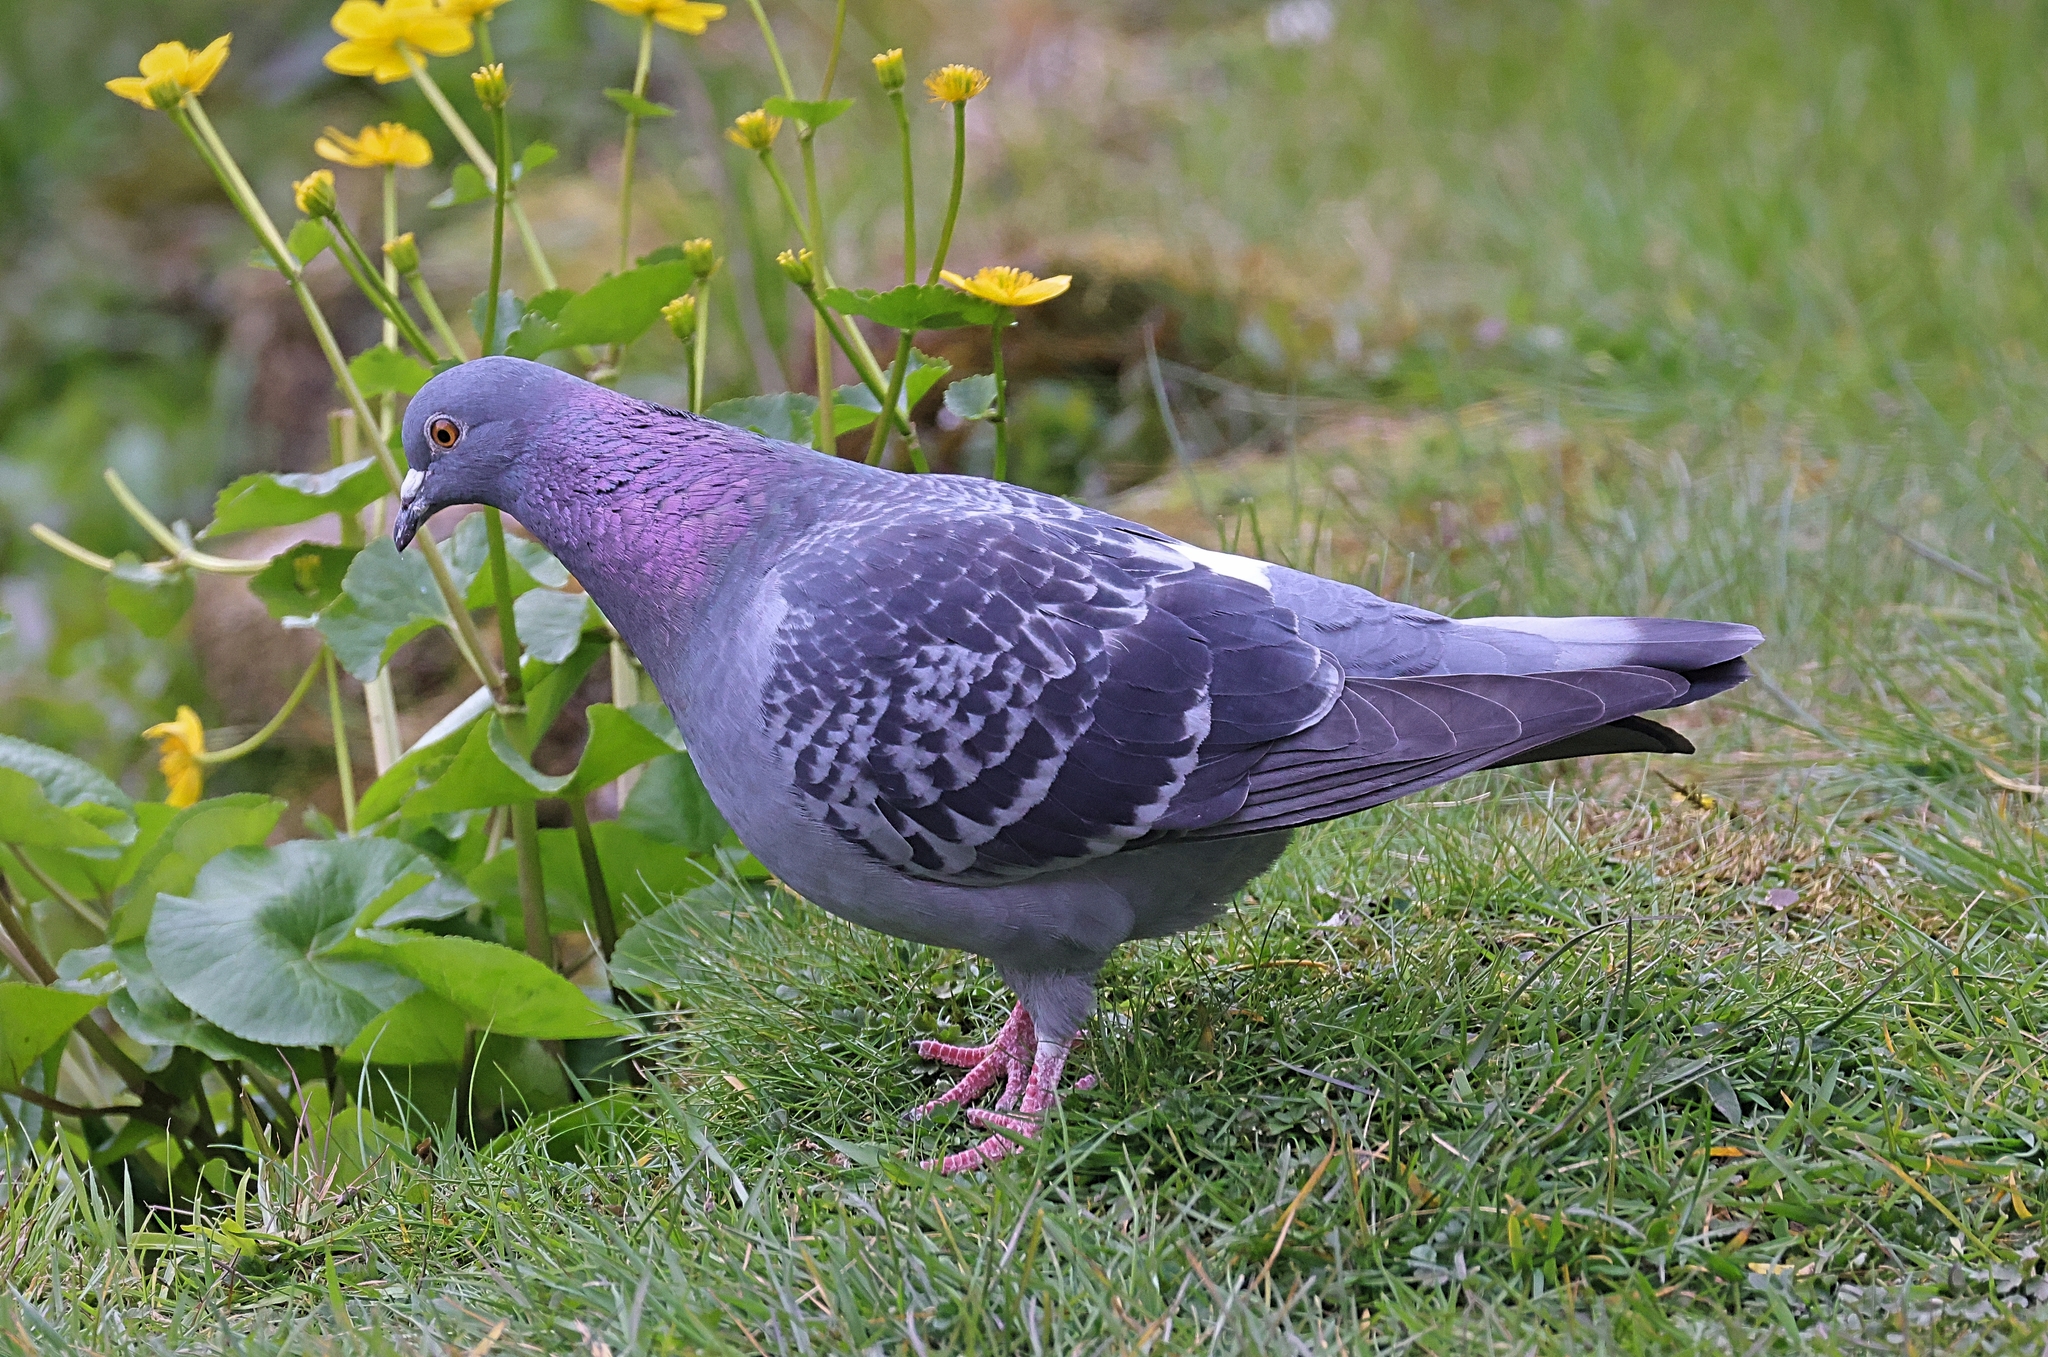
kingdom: Animalia
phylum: Chordata
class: Aves
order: Columbiformes
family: Columbidae
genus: Columba
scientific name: Columba livia
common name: Rock pigeon
